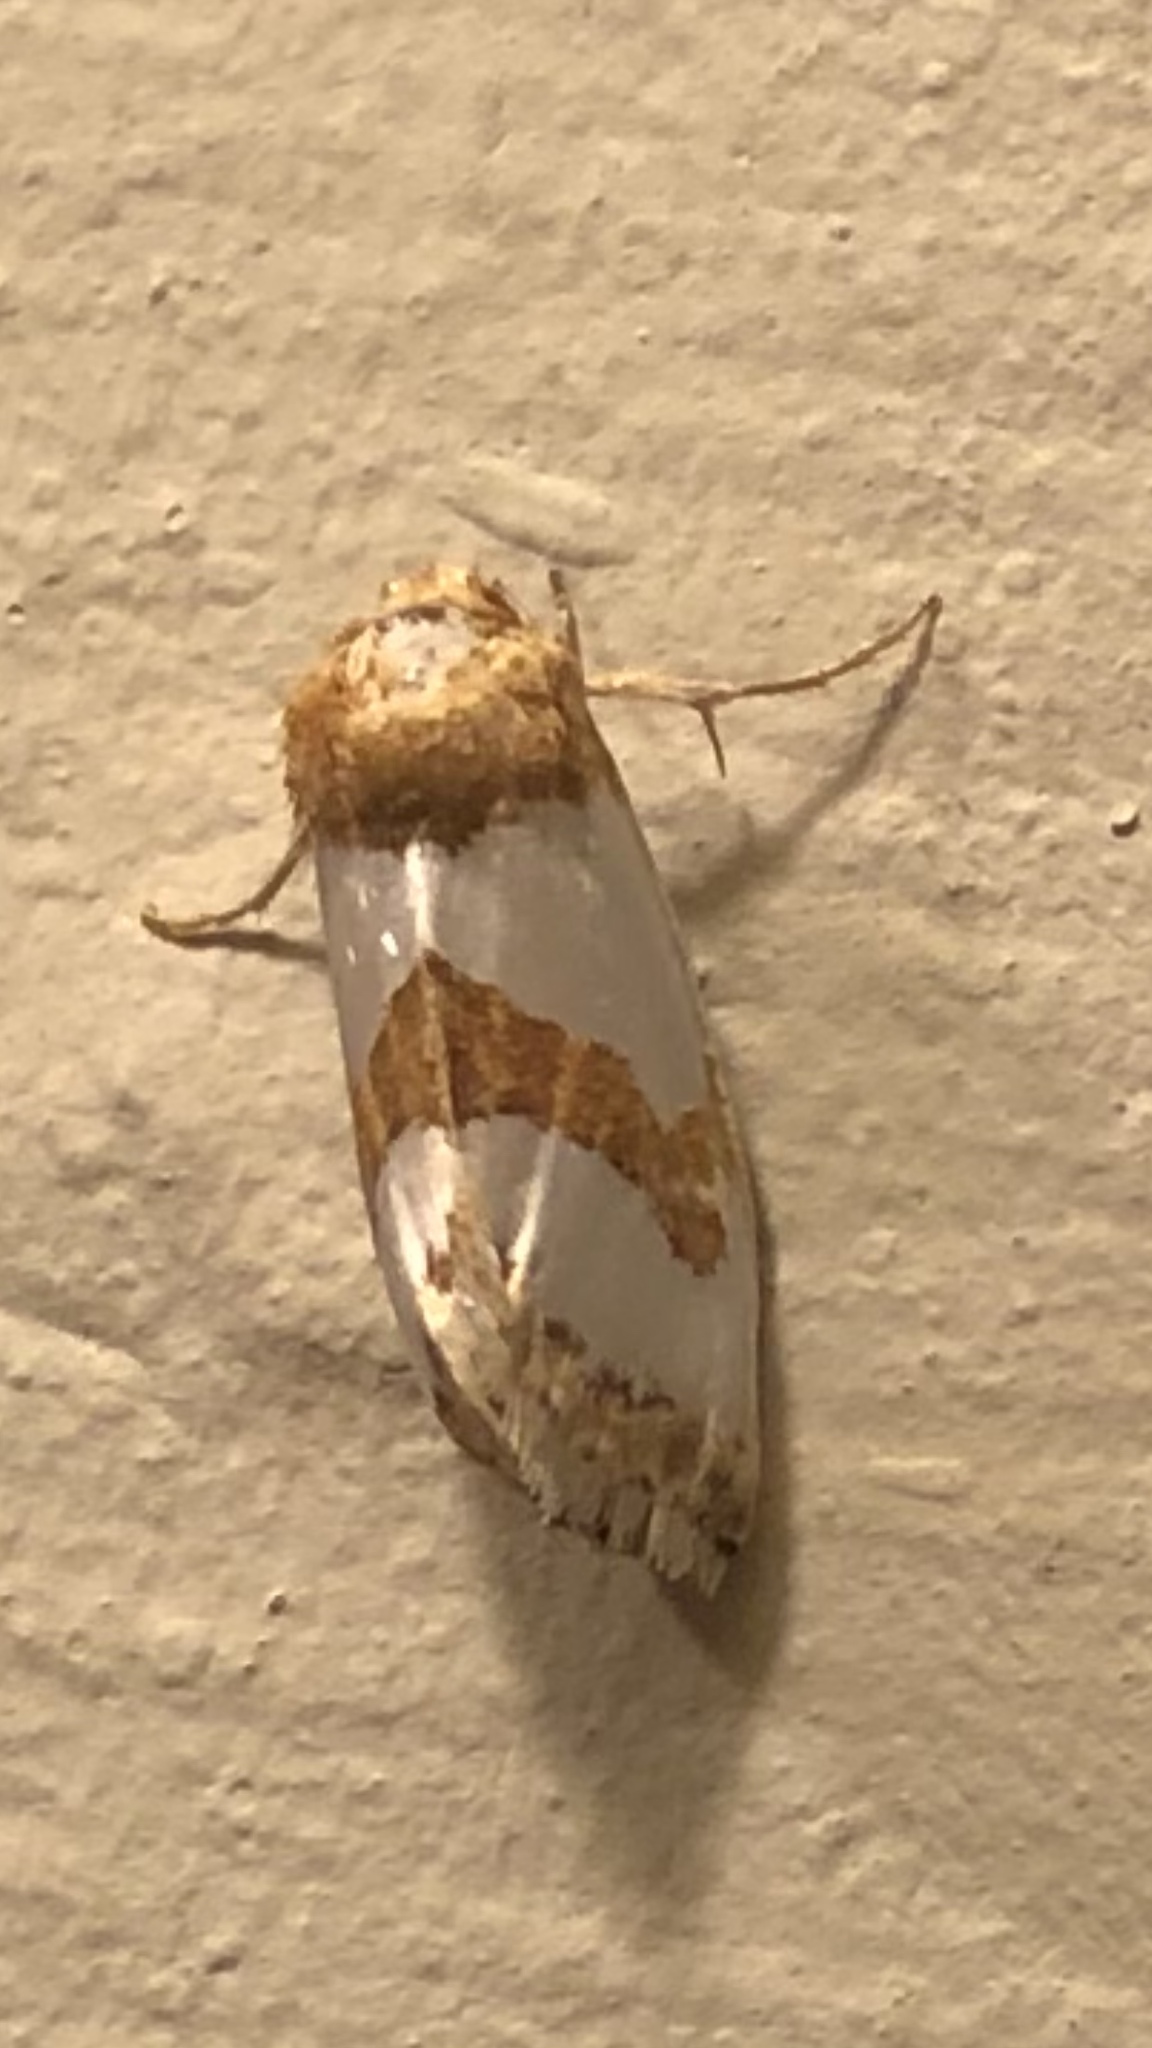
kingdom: Animalia
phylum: Arthropoda
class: Insecta
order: Lepidoptera
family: Noctuidae
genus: Schinia
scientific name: Schinia chrysellus
